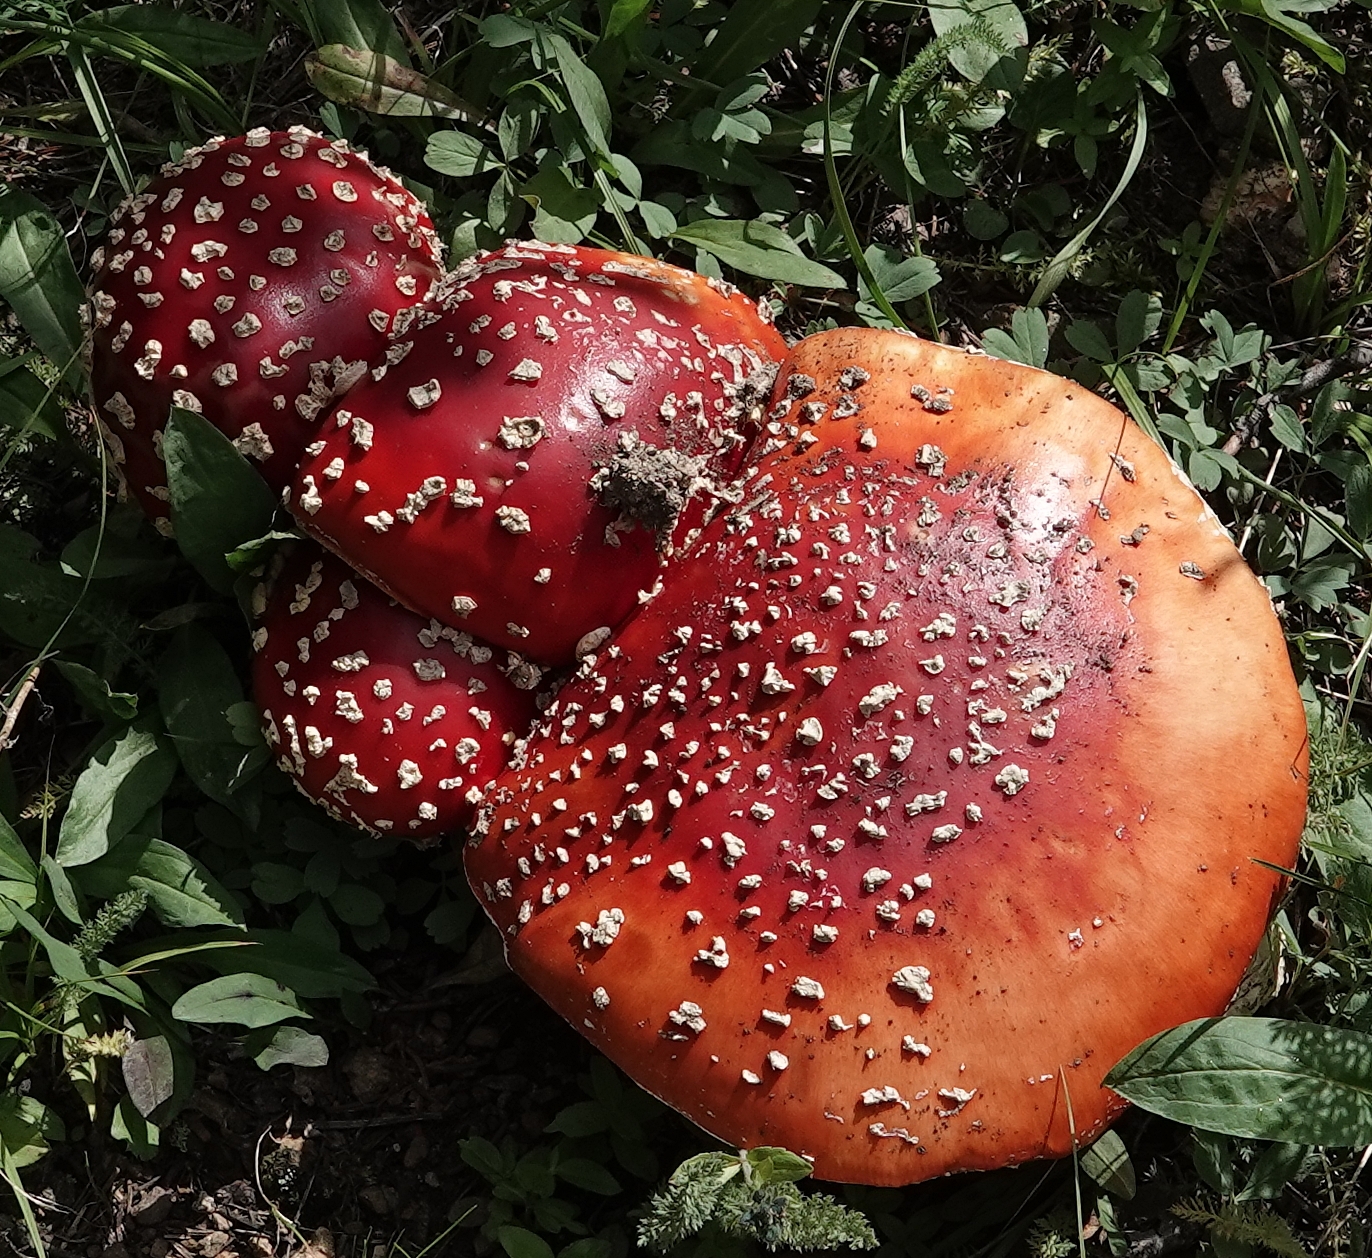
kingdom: Fungi
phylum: Basidiomycota
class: Agaricomycetes
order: Agaricales
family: Amanitaceae
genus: Amanita
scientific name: Amanita muscaria
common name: Fly agaric
